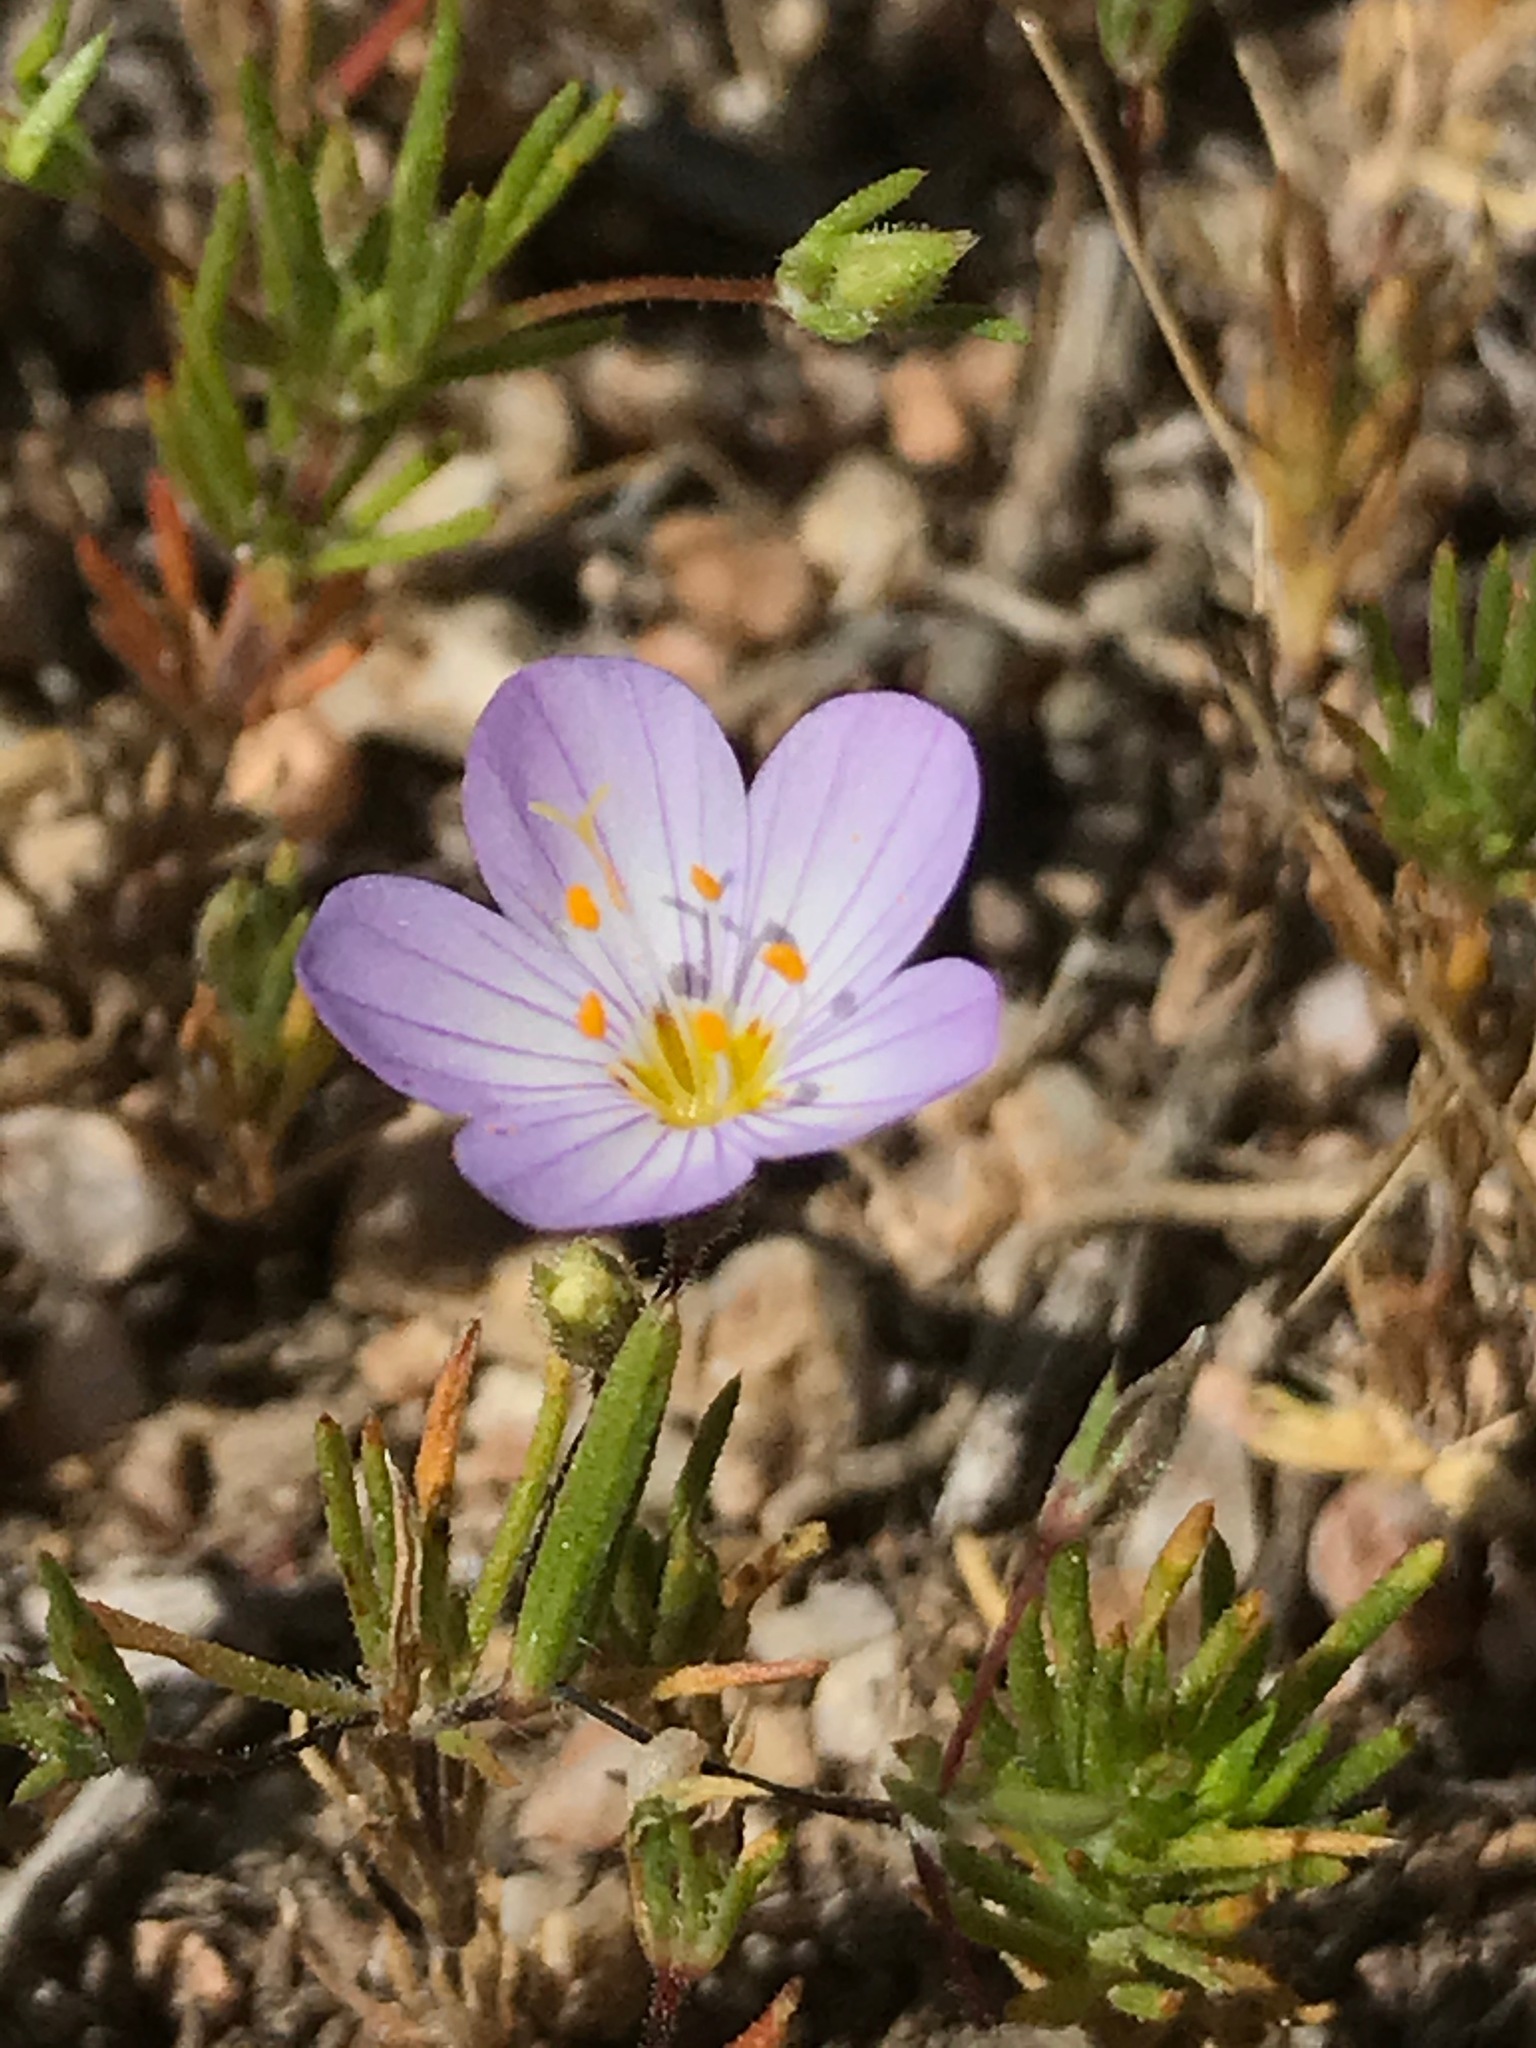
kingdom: Plantae
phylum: Tracheophyta
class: Magnoliopsida
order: Ericales
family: Polemoniaceae
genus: Leptosiphon
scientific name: Leptosiphon liniflorus
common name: Narrowflower flaxflower
